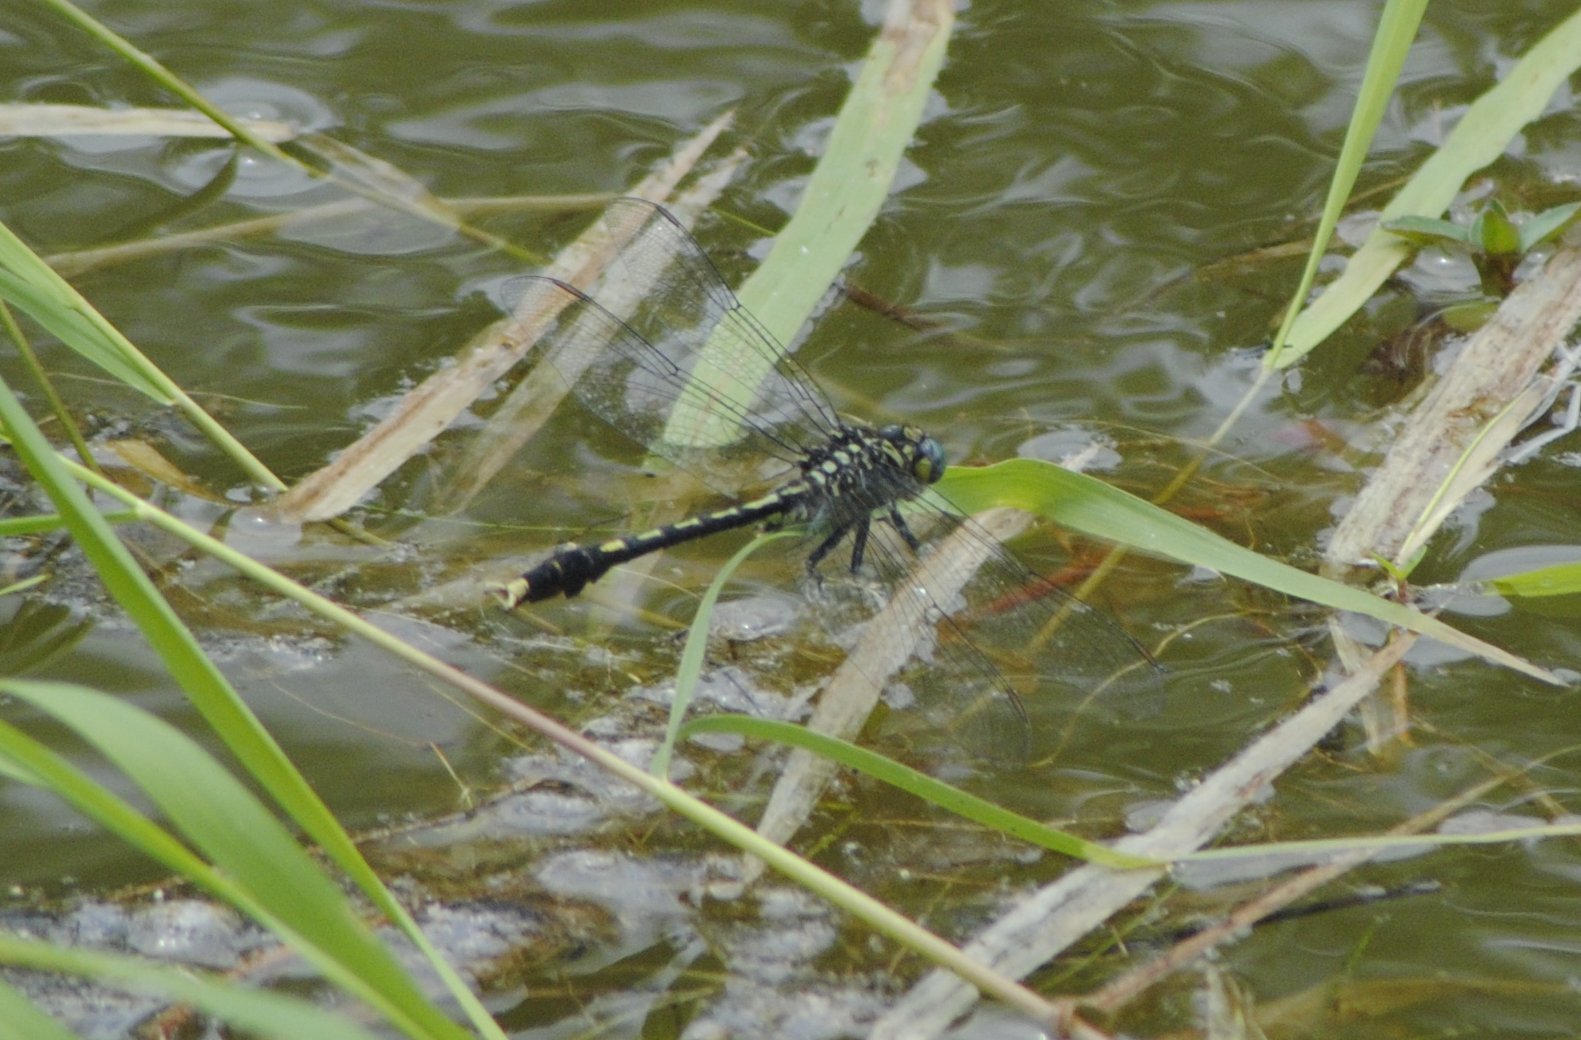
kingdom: Animalia
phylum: Arthropoda
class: Insecta
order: Odonata
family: Gomphidae
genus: Arigomphus
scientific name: Arigomphus villosipes
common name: Unicorn clubtail
